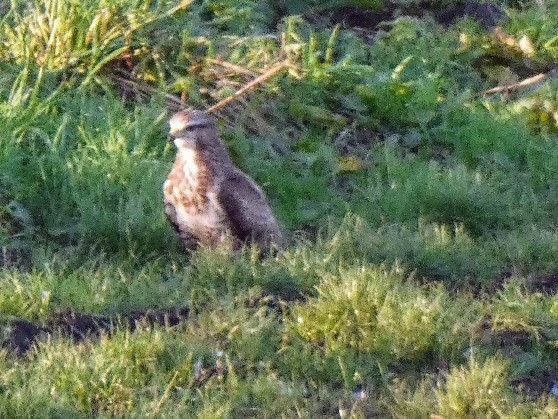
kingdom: Animalia
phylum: Chordata
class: Aves
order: Accipitriformes
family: Accipitridae
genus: Buteo
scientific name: Buteo buteo
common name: Common buzzard
